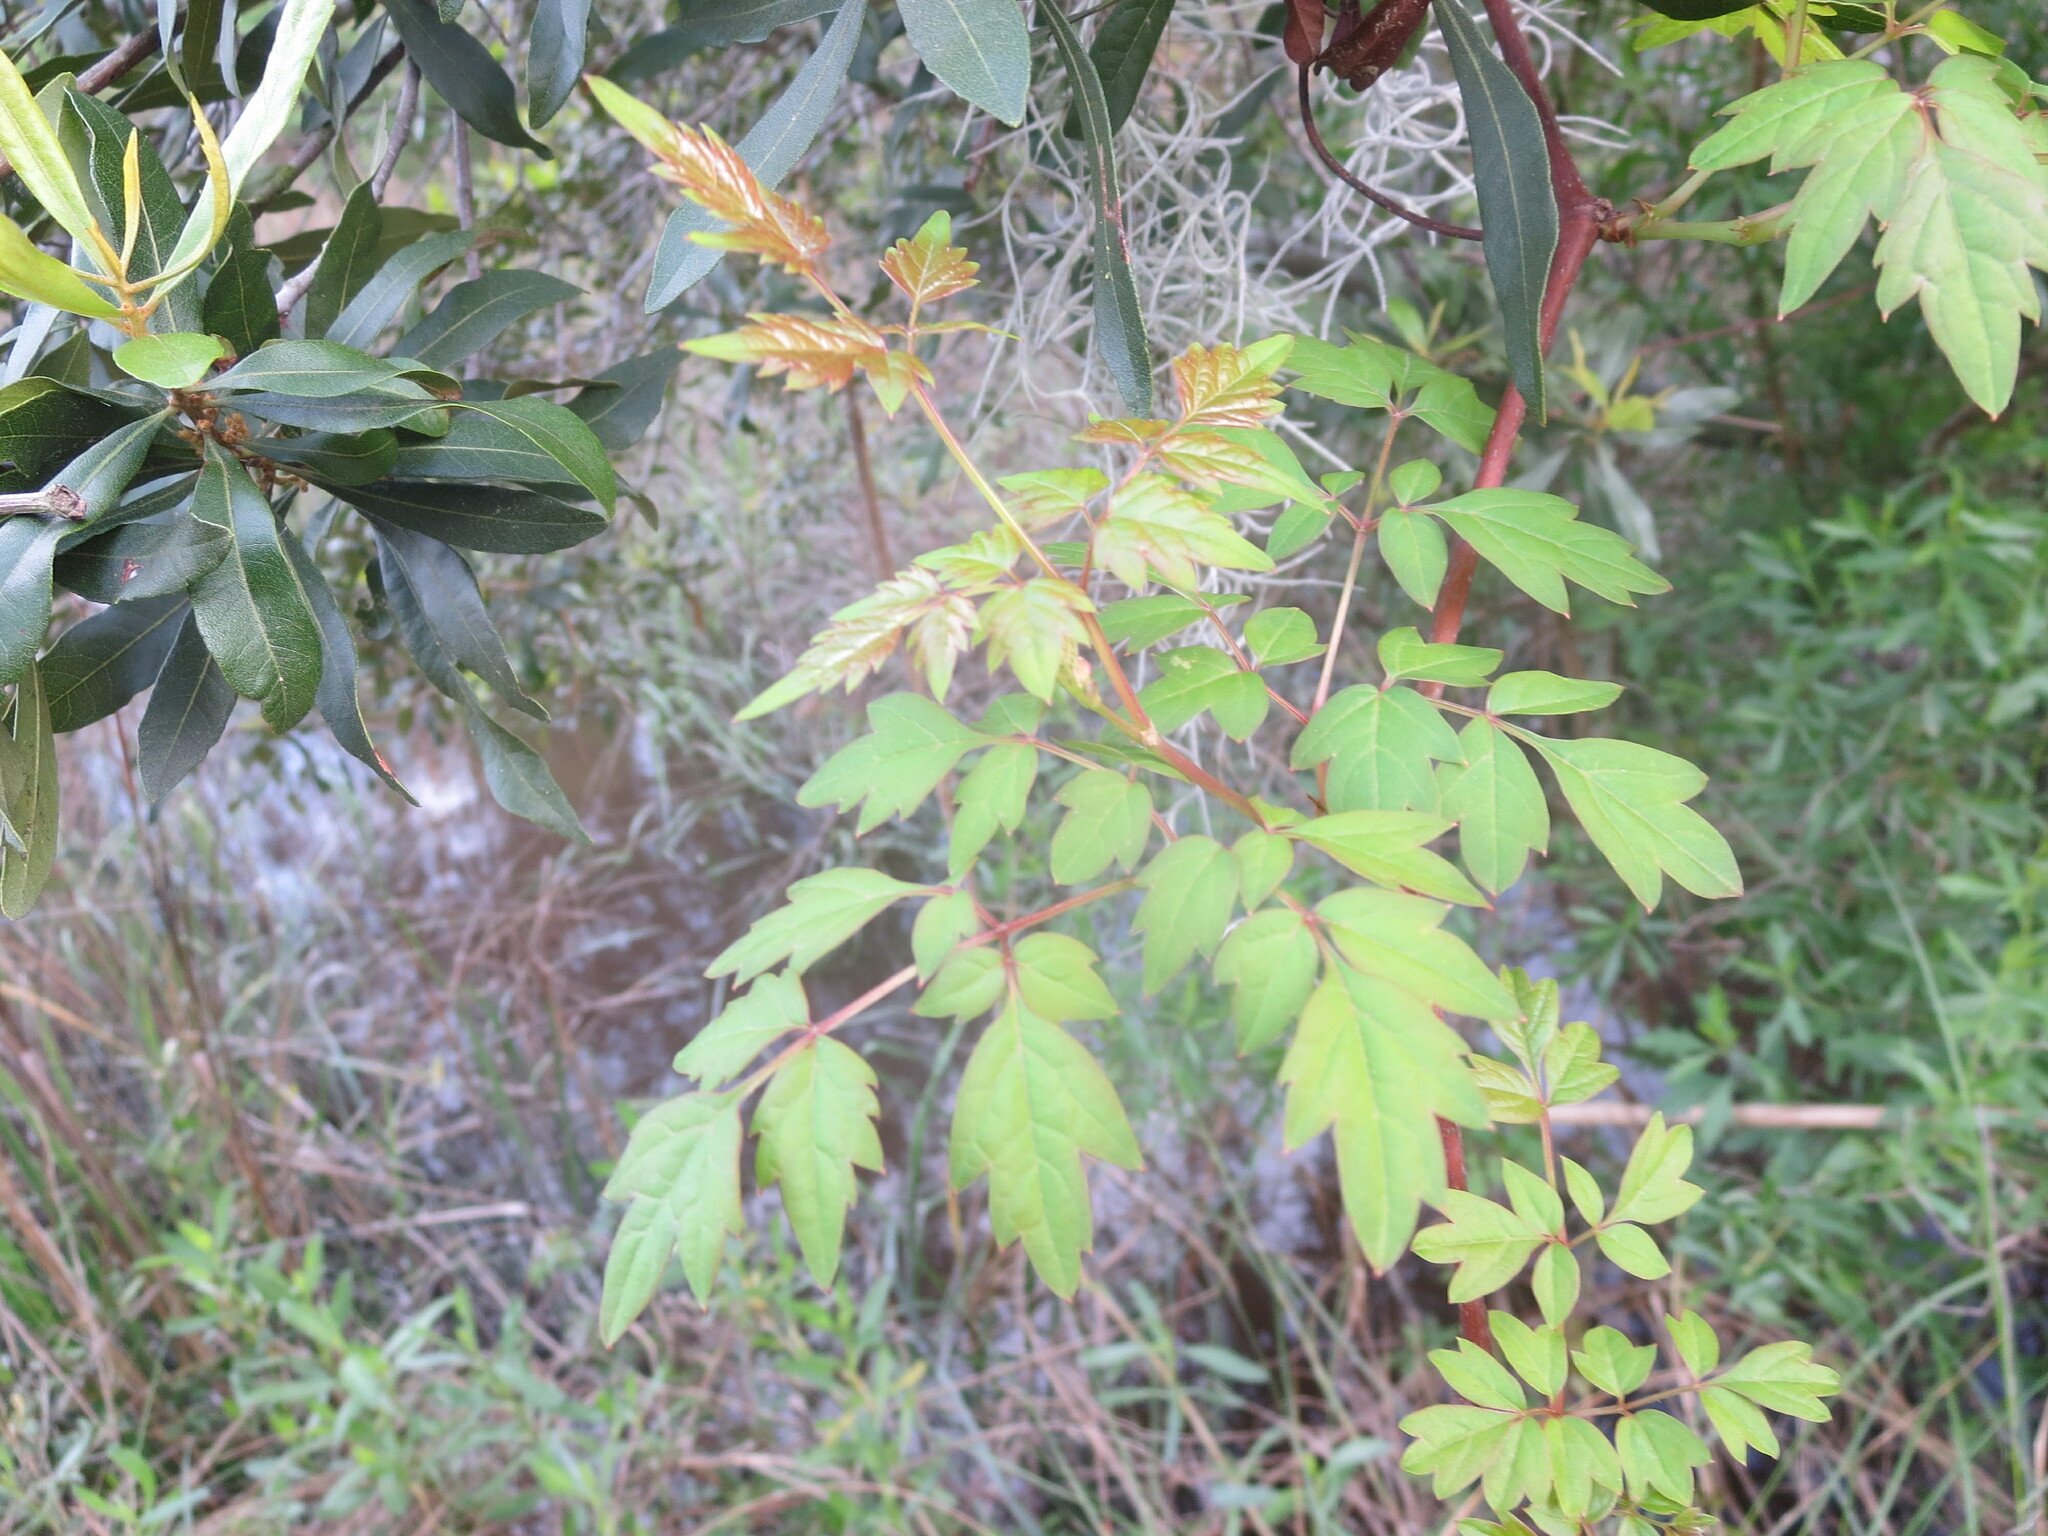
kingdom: Plantae
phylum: Tracheophyta
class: Magnoliopsida
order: Vitales
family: Vitaceae
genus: Nekemias
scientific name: Nekemias arborea
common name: Peppervine
